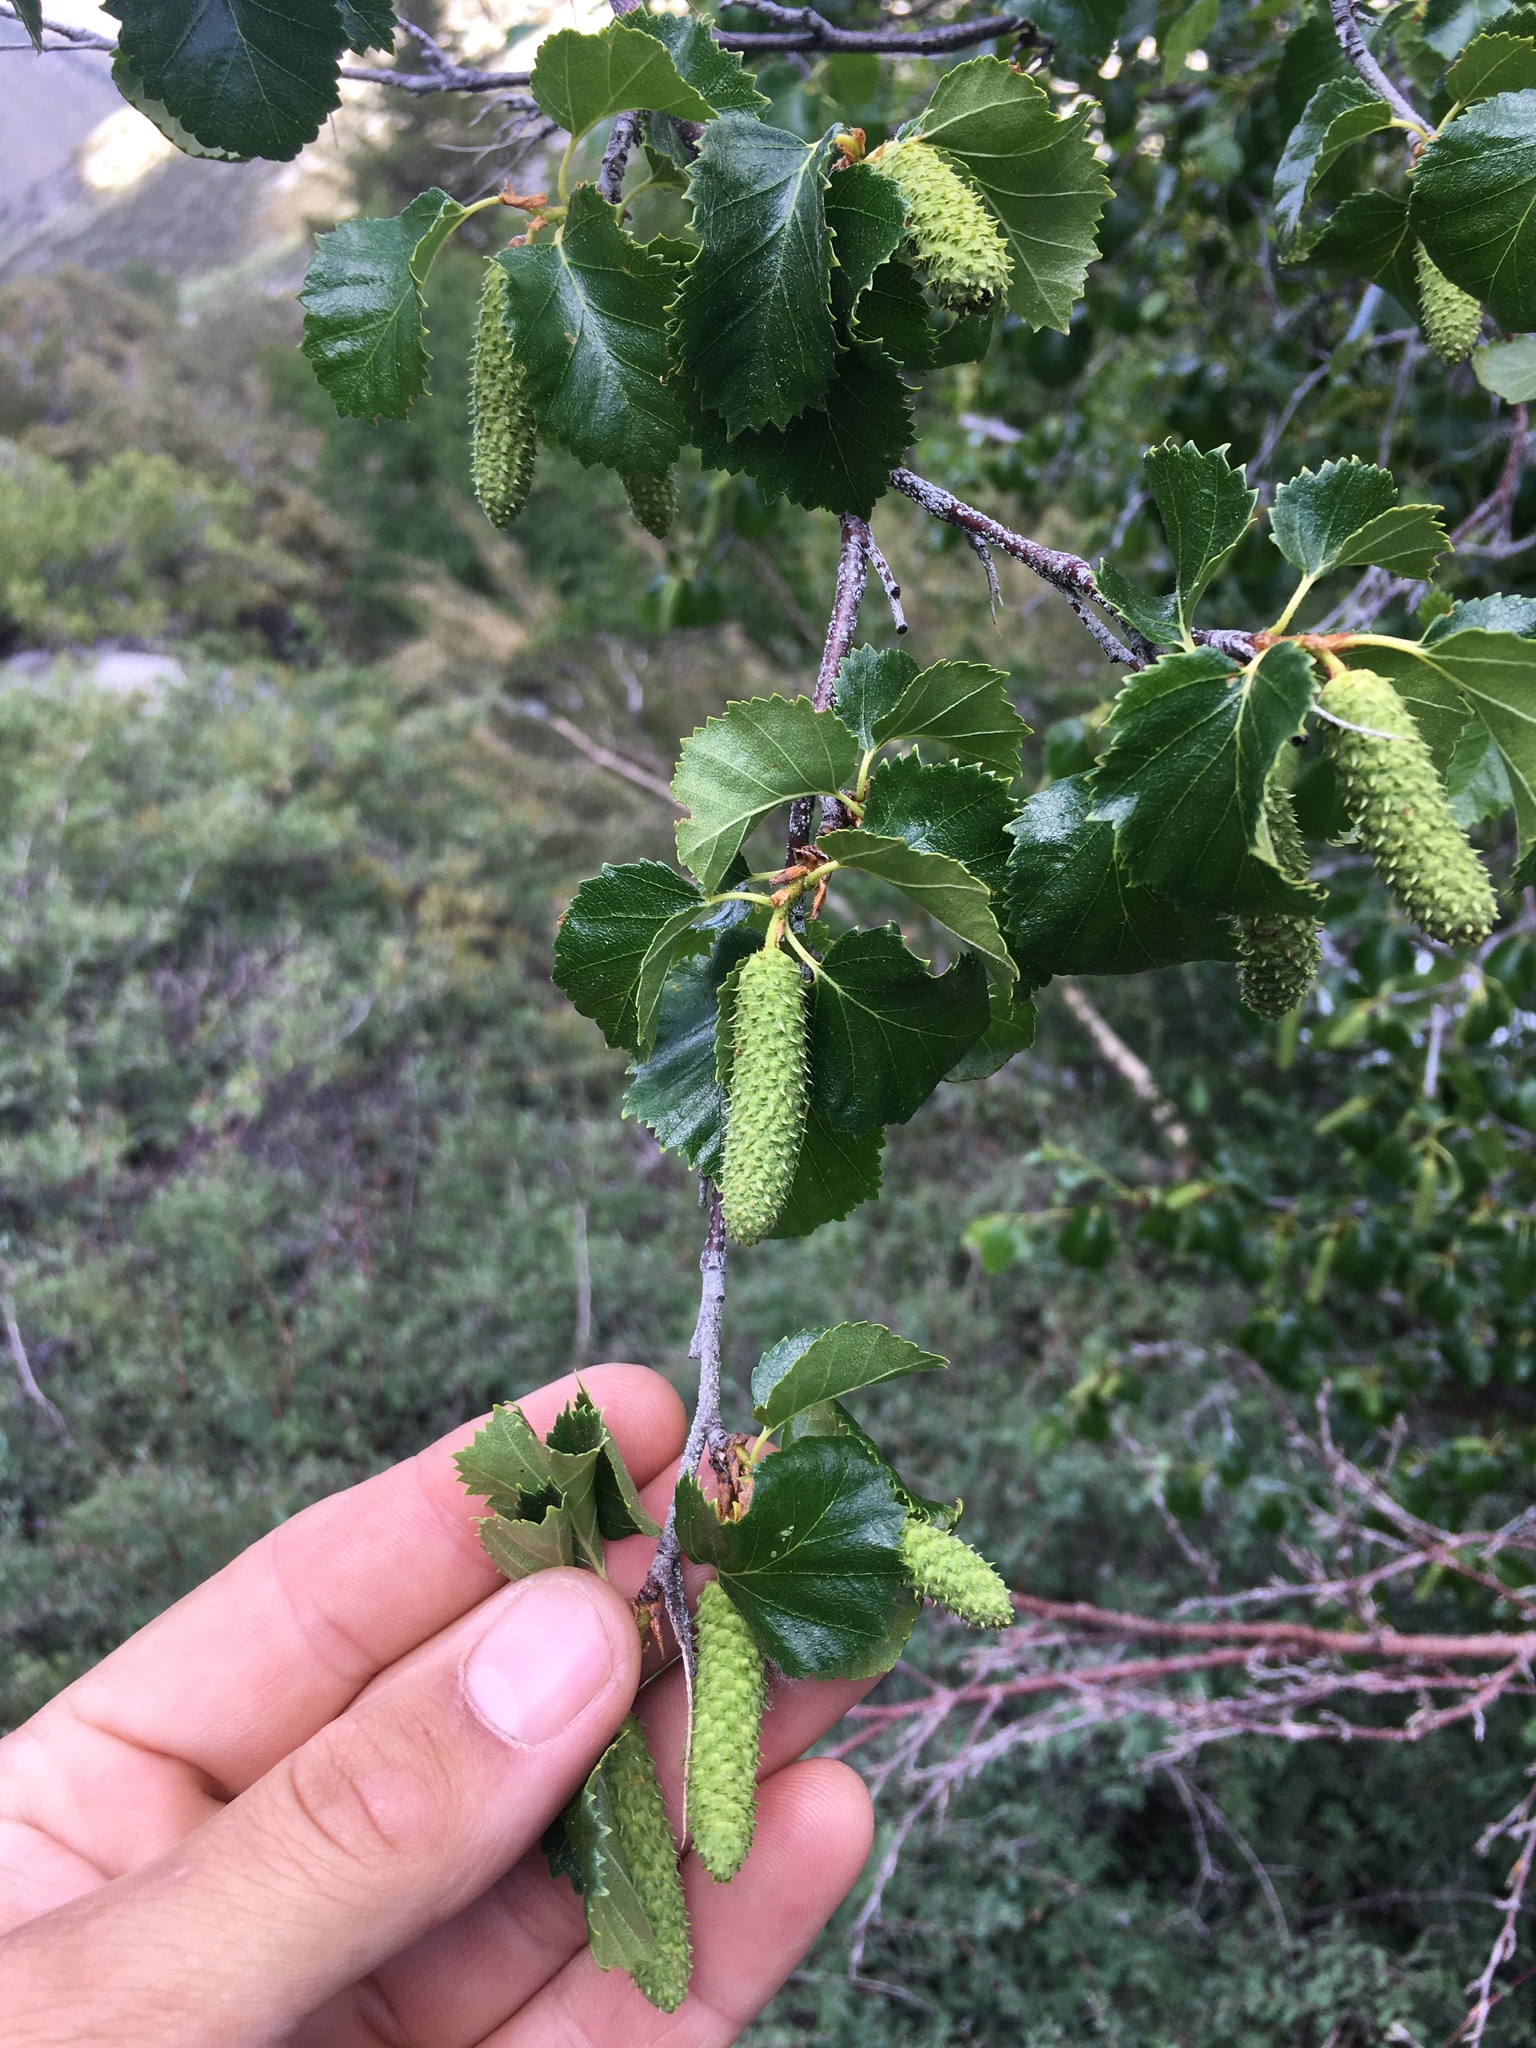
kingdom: Plantae
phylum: Tracheophyta
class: Magnoliopsida
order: Fagales
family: Betulaceae
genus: Betula
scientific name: Betula occidentalis
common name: River birch
